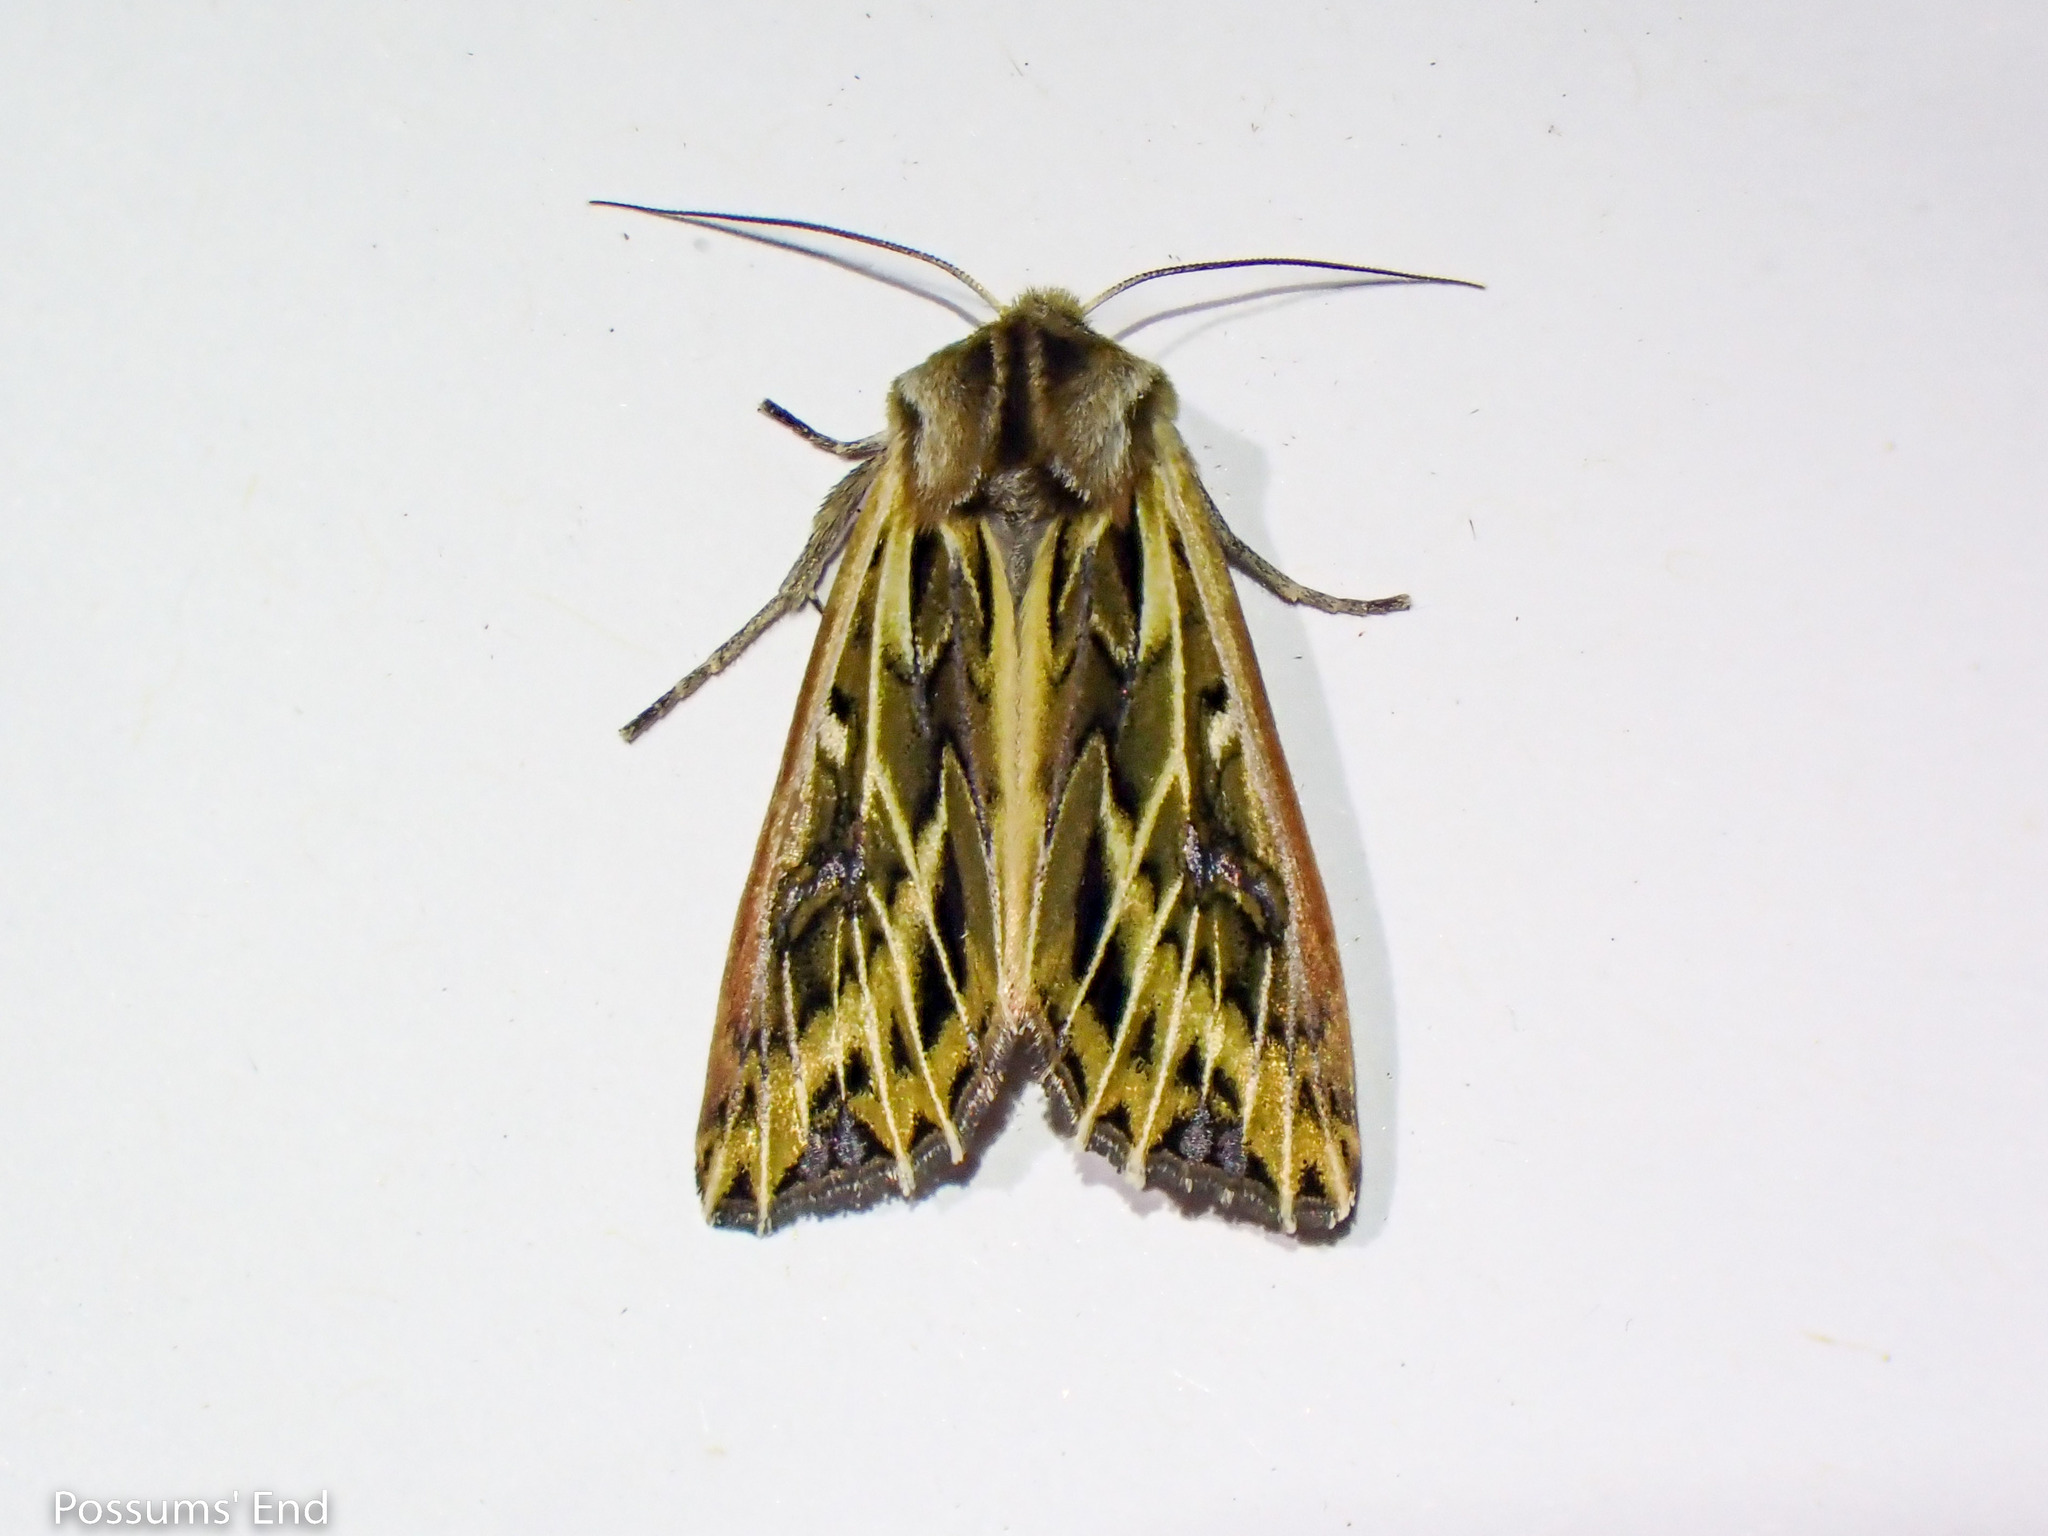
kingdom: Animalia
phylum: Arthropoda
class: Insecta
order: Lepidoptera
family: Noctuidae
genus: Ichneutica
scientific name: Ichneutica
